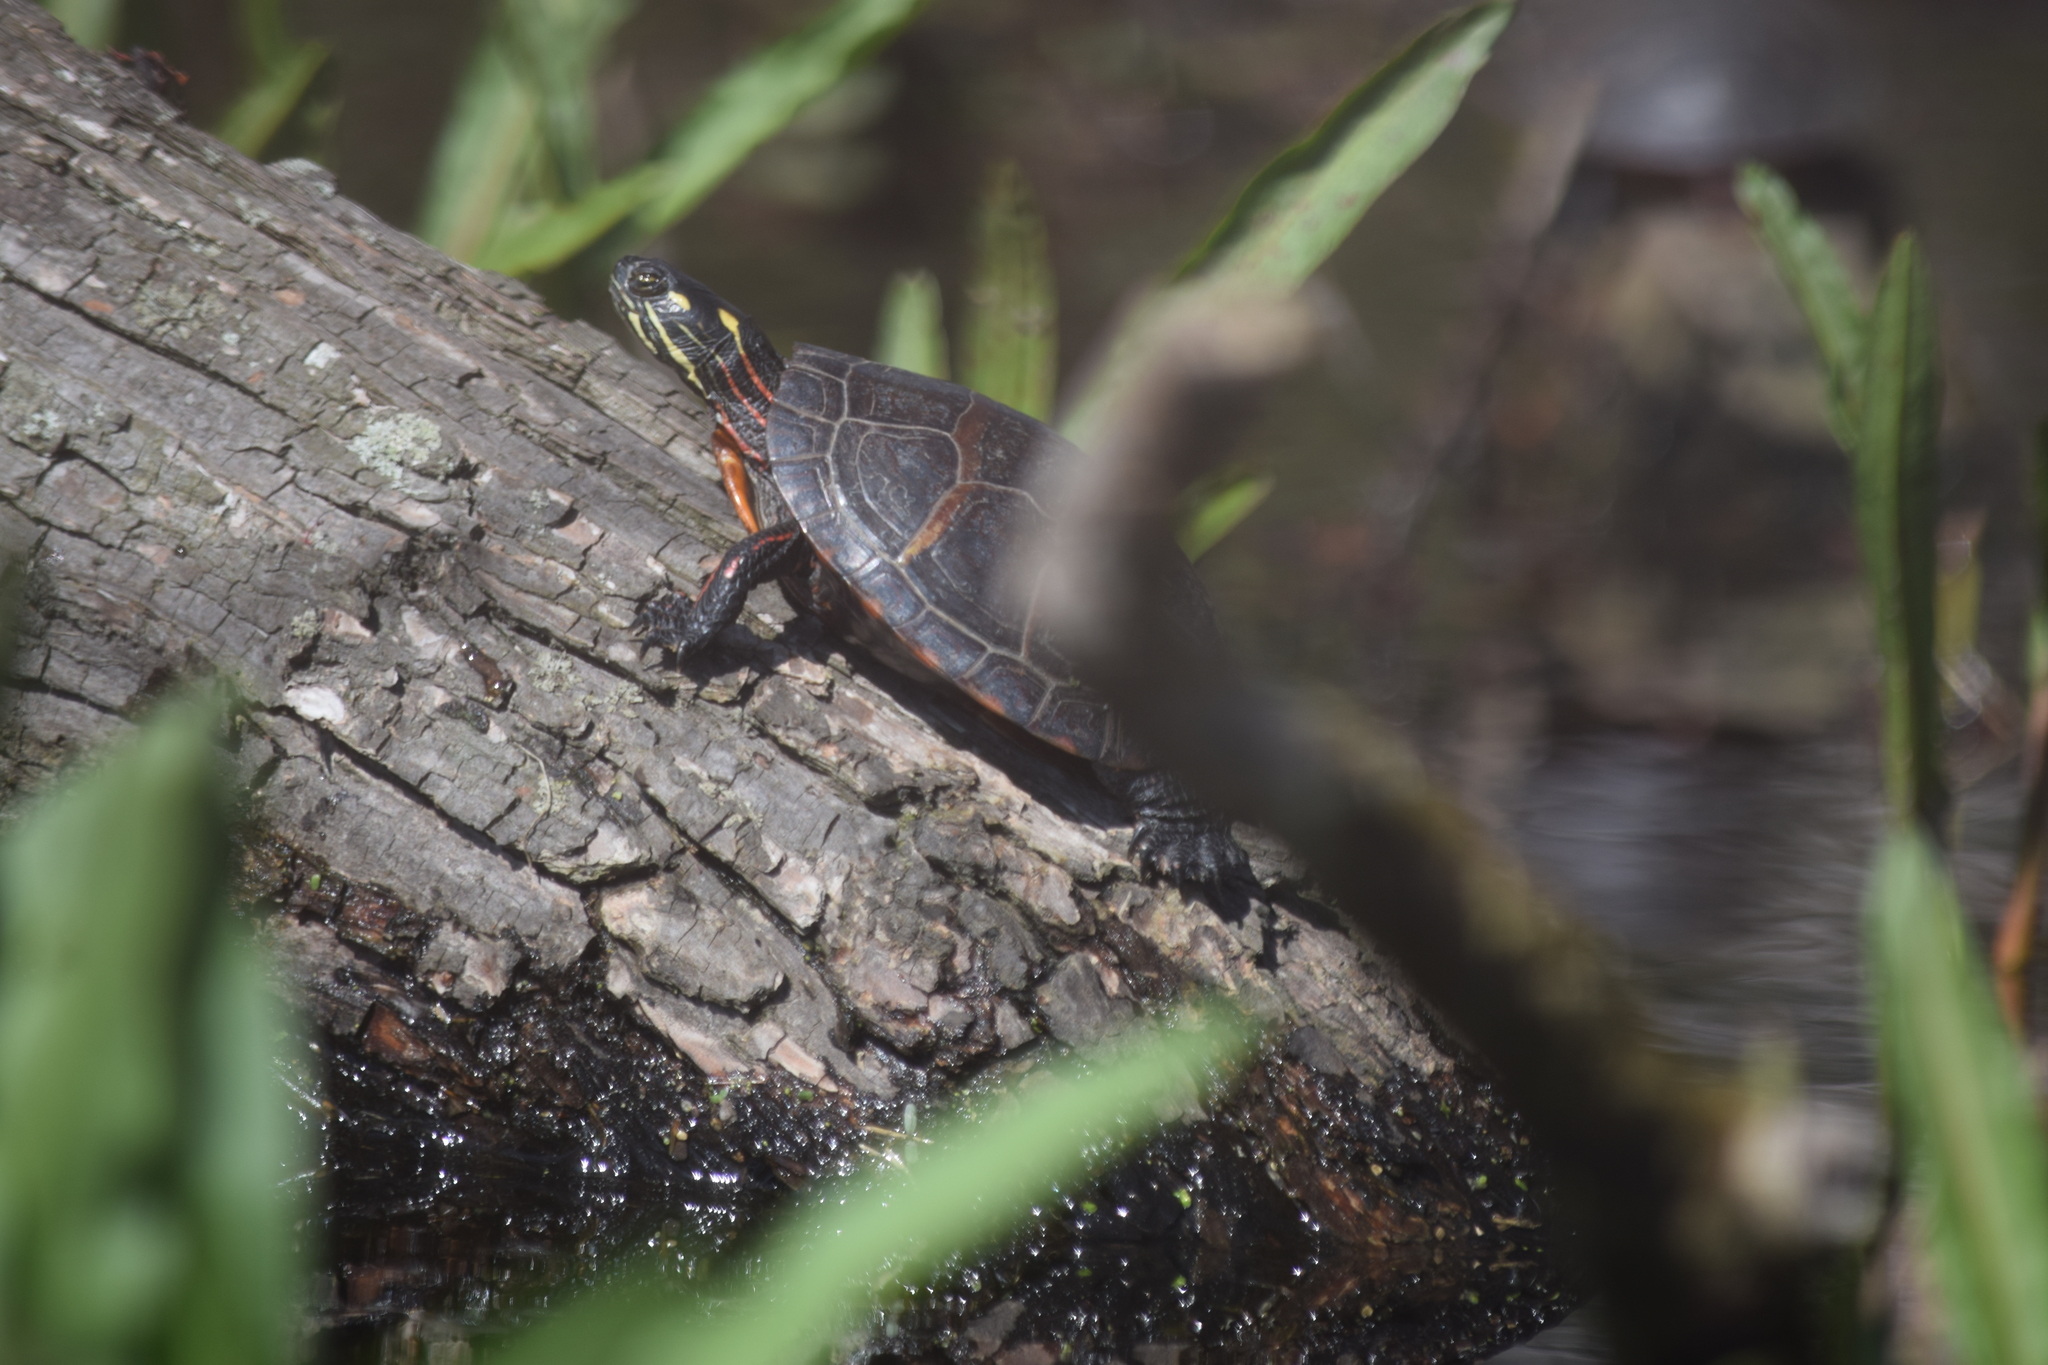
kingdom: Animalia
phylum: Chordata
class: Testudines
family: Emydidae
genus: Chrysemys
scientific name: Chrysemys picta
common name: Painted turtle
